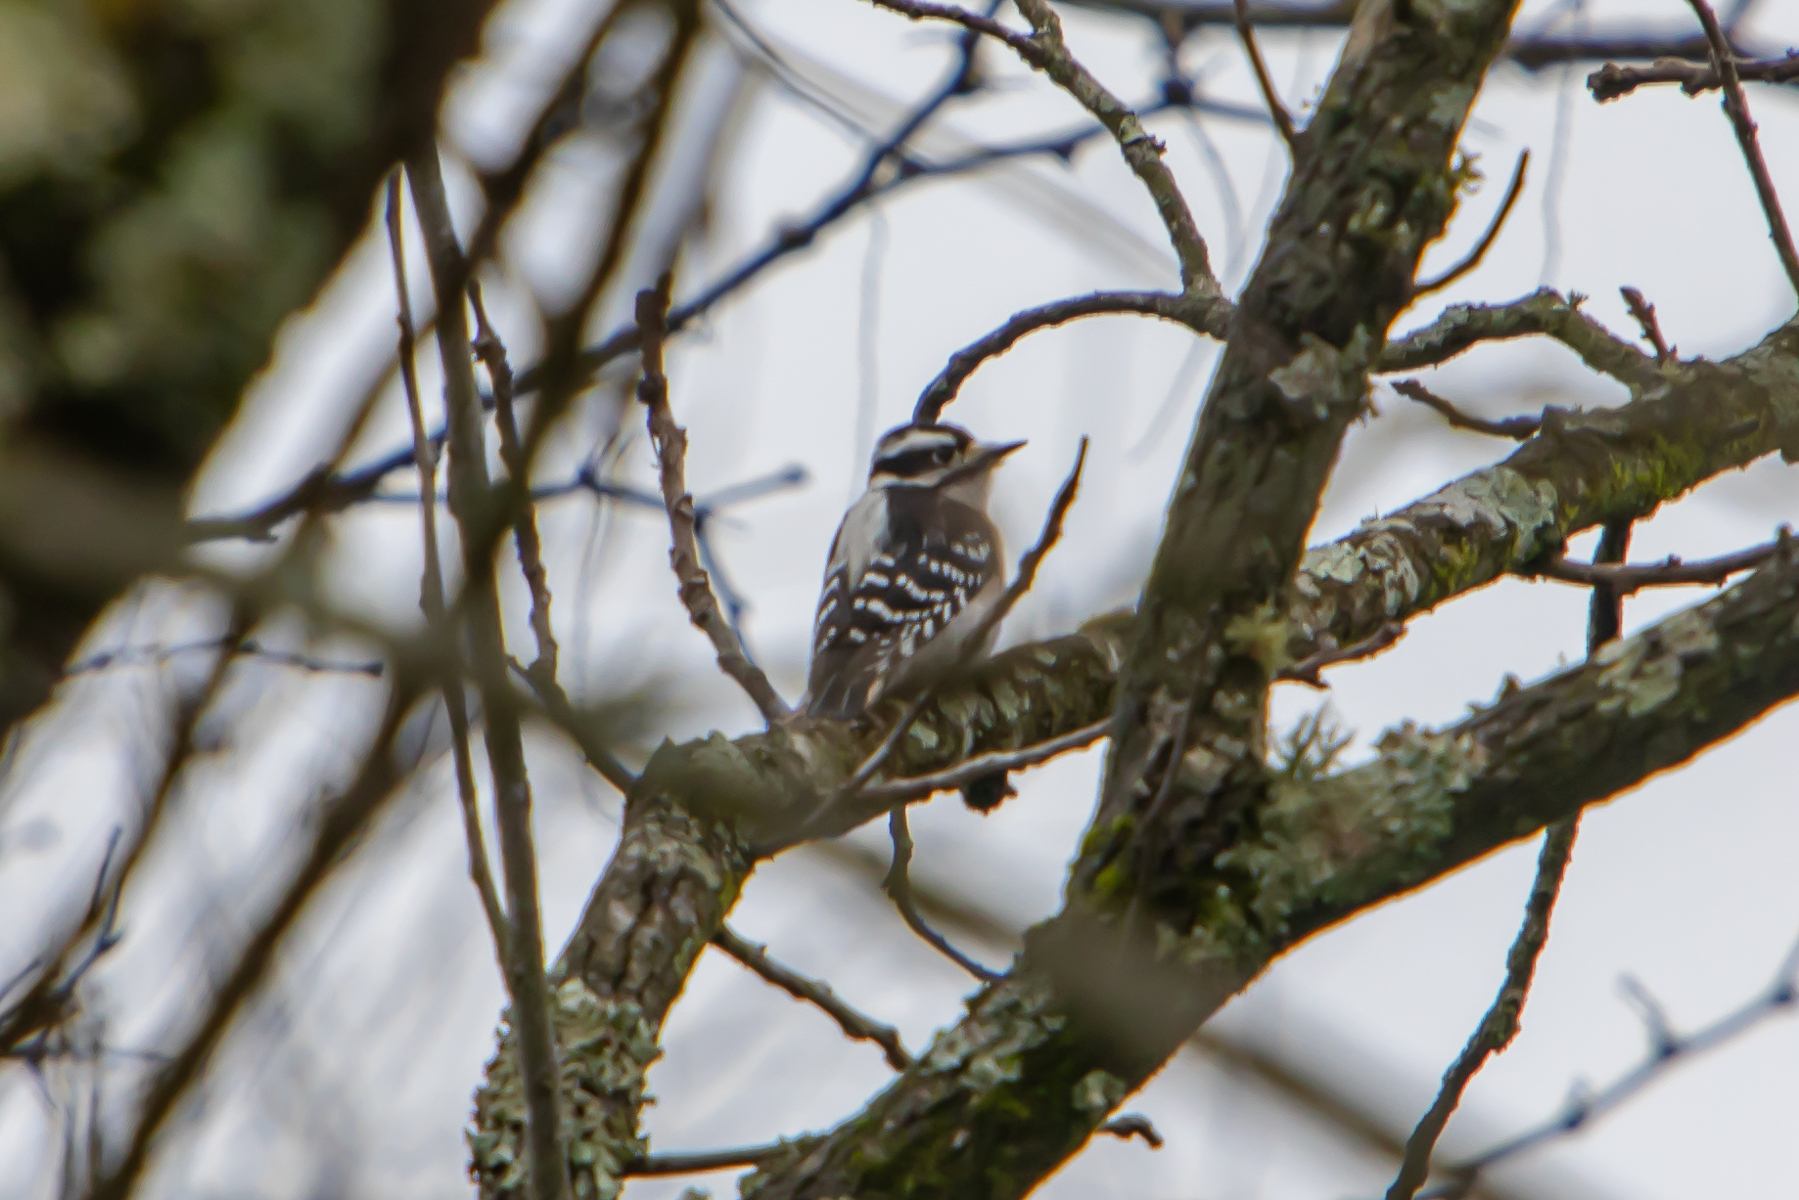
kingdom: Animalia
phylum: Chordata
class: Aves
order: Piciformes
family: Picidae
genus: Dryobates
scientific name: Dryobates pubescens
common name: Downy woodpecker
